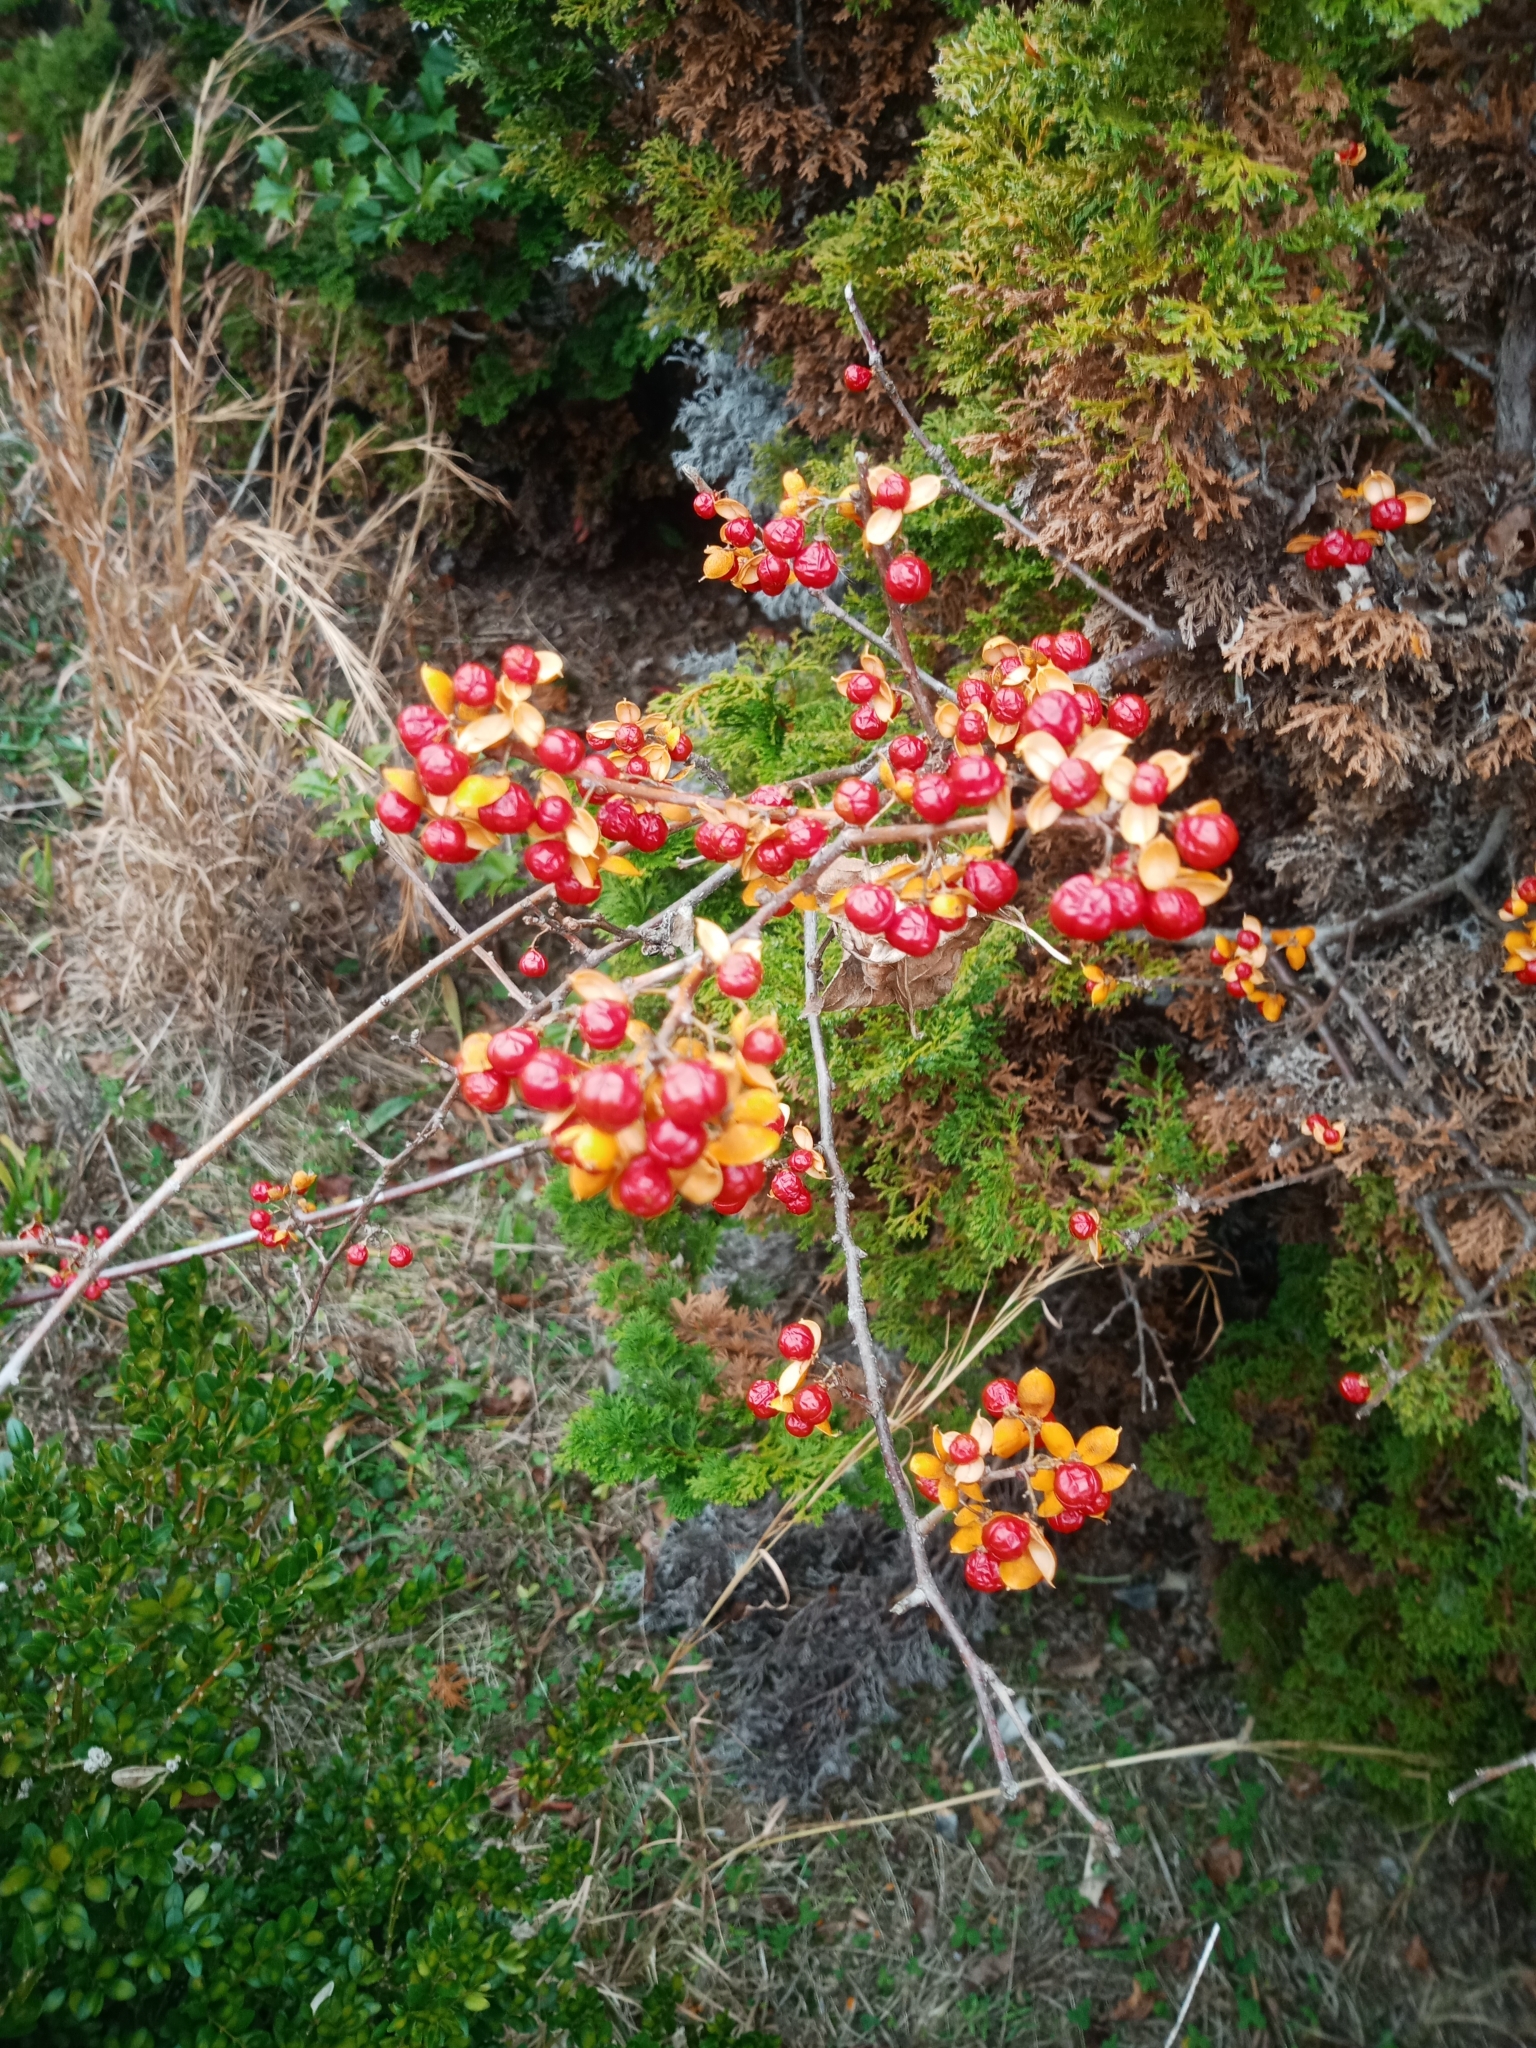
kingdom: Plantae
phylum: Tracheophyta
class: Magnoliopsida
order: Celastrales
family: Celastraceae
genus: Celastrus
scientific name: Celastrus orbiculatus
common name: Oriental bittersweet
